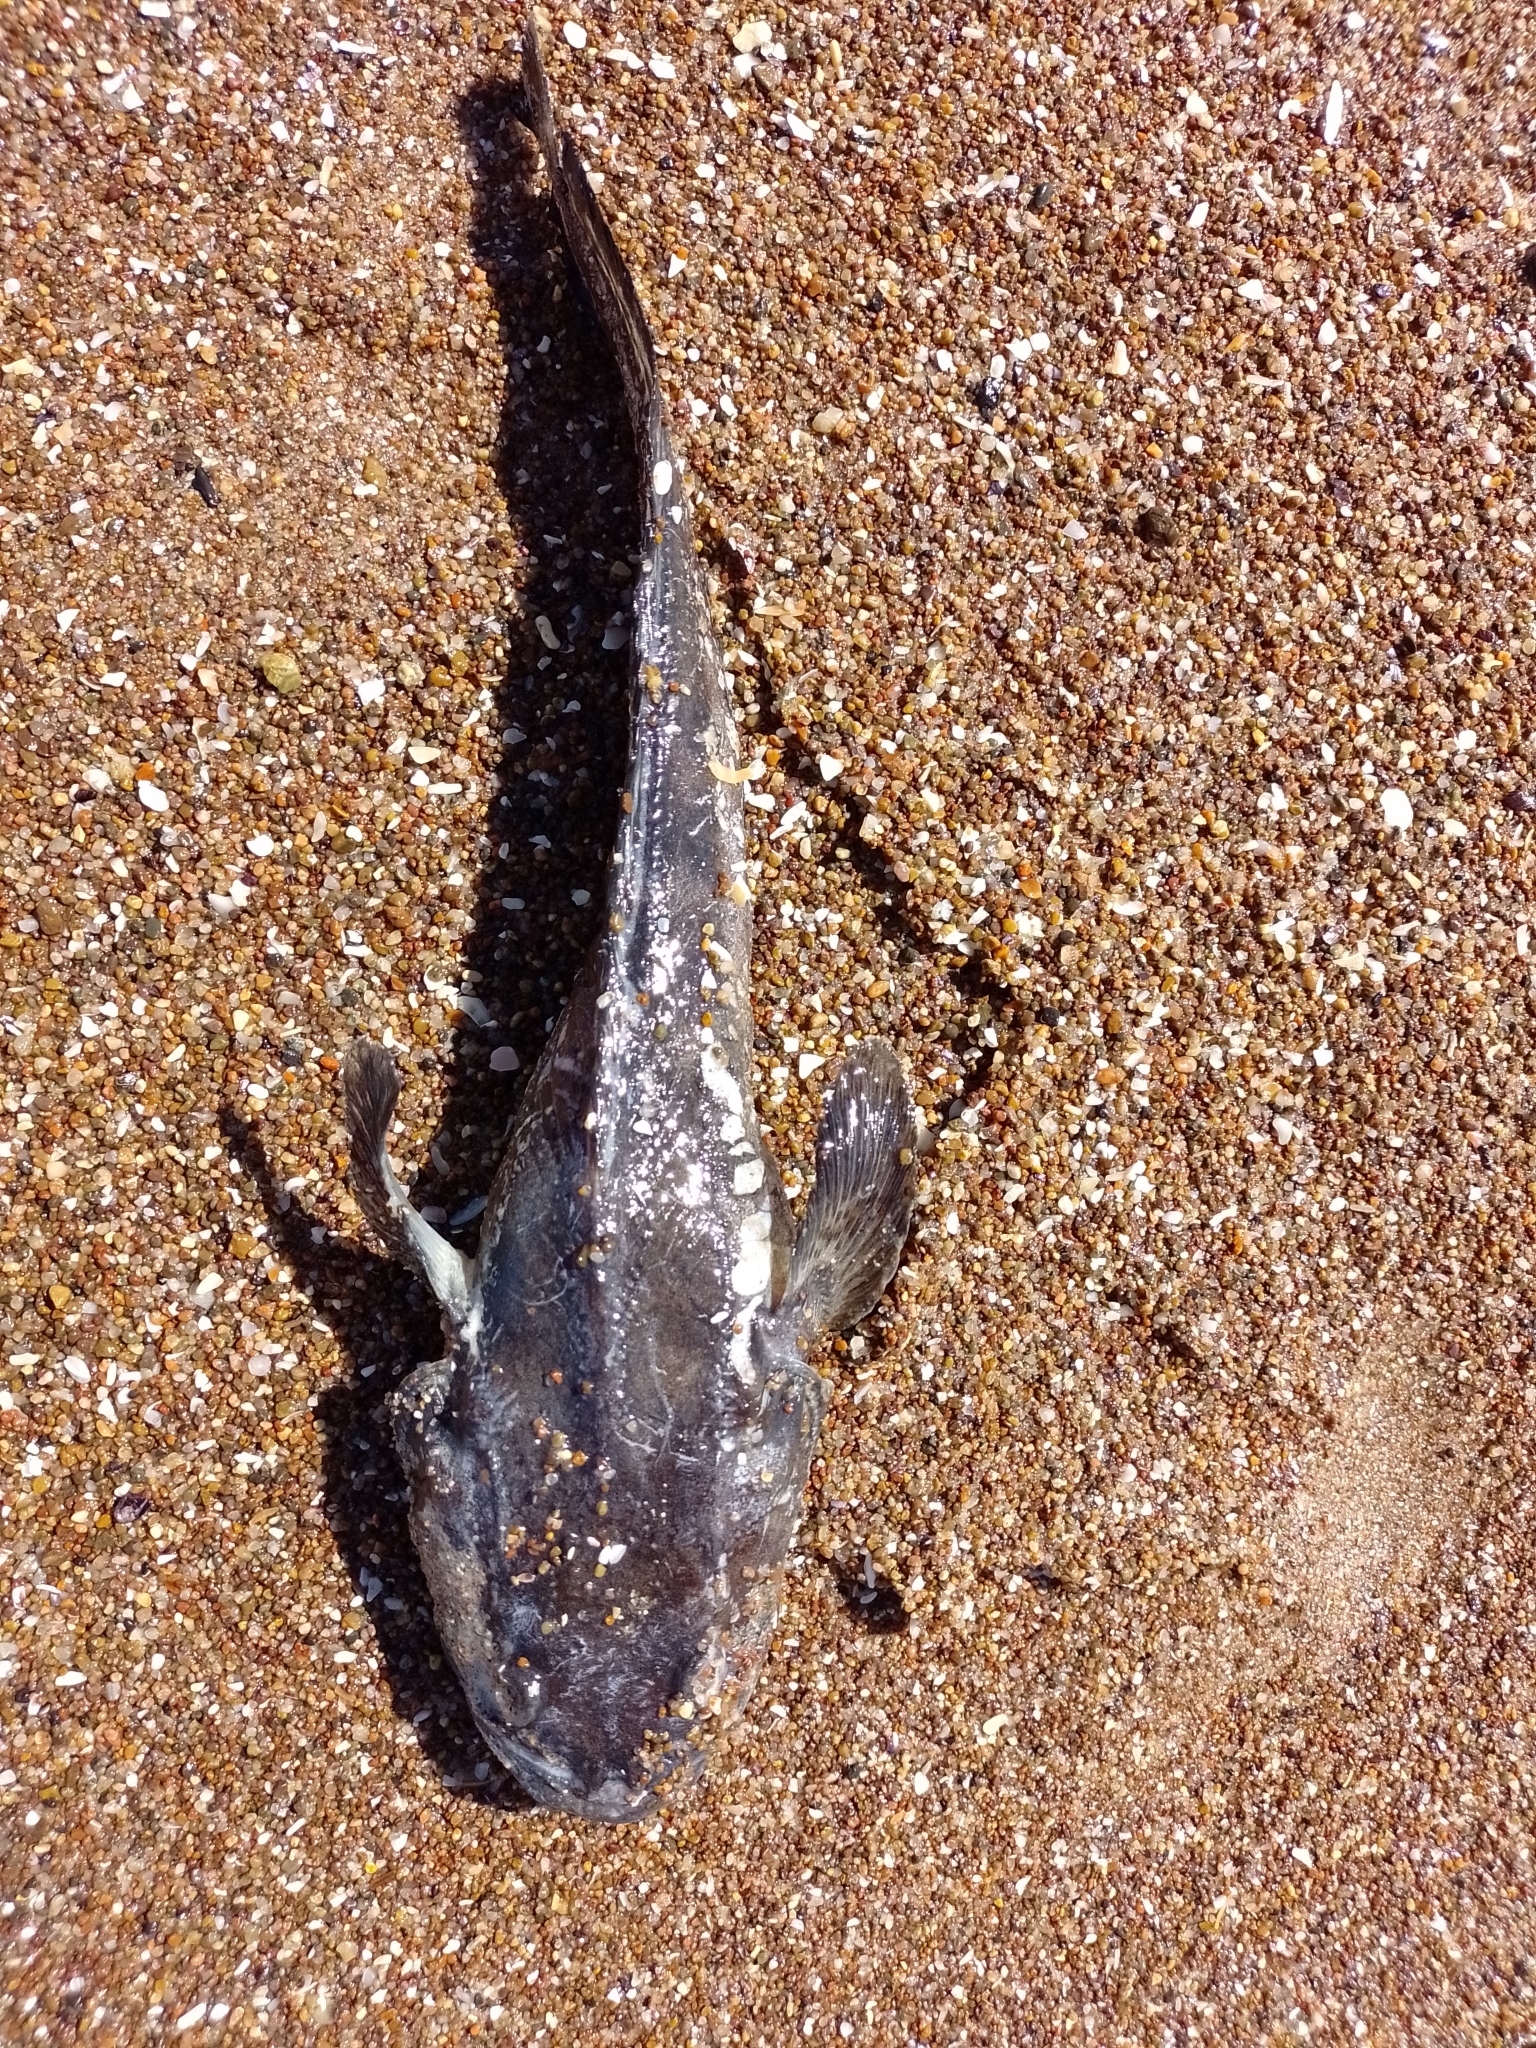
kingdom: Animalia
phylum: Chordata
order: Batrachoidiformes
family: Batrachoididae
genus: Porichthys
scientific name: Porichthys porosissimus
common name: Toadfish
